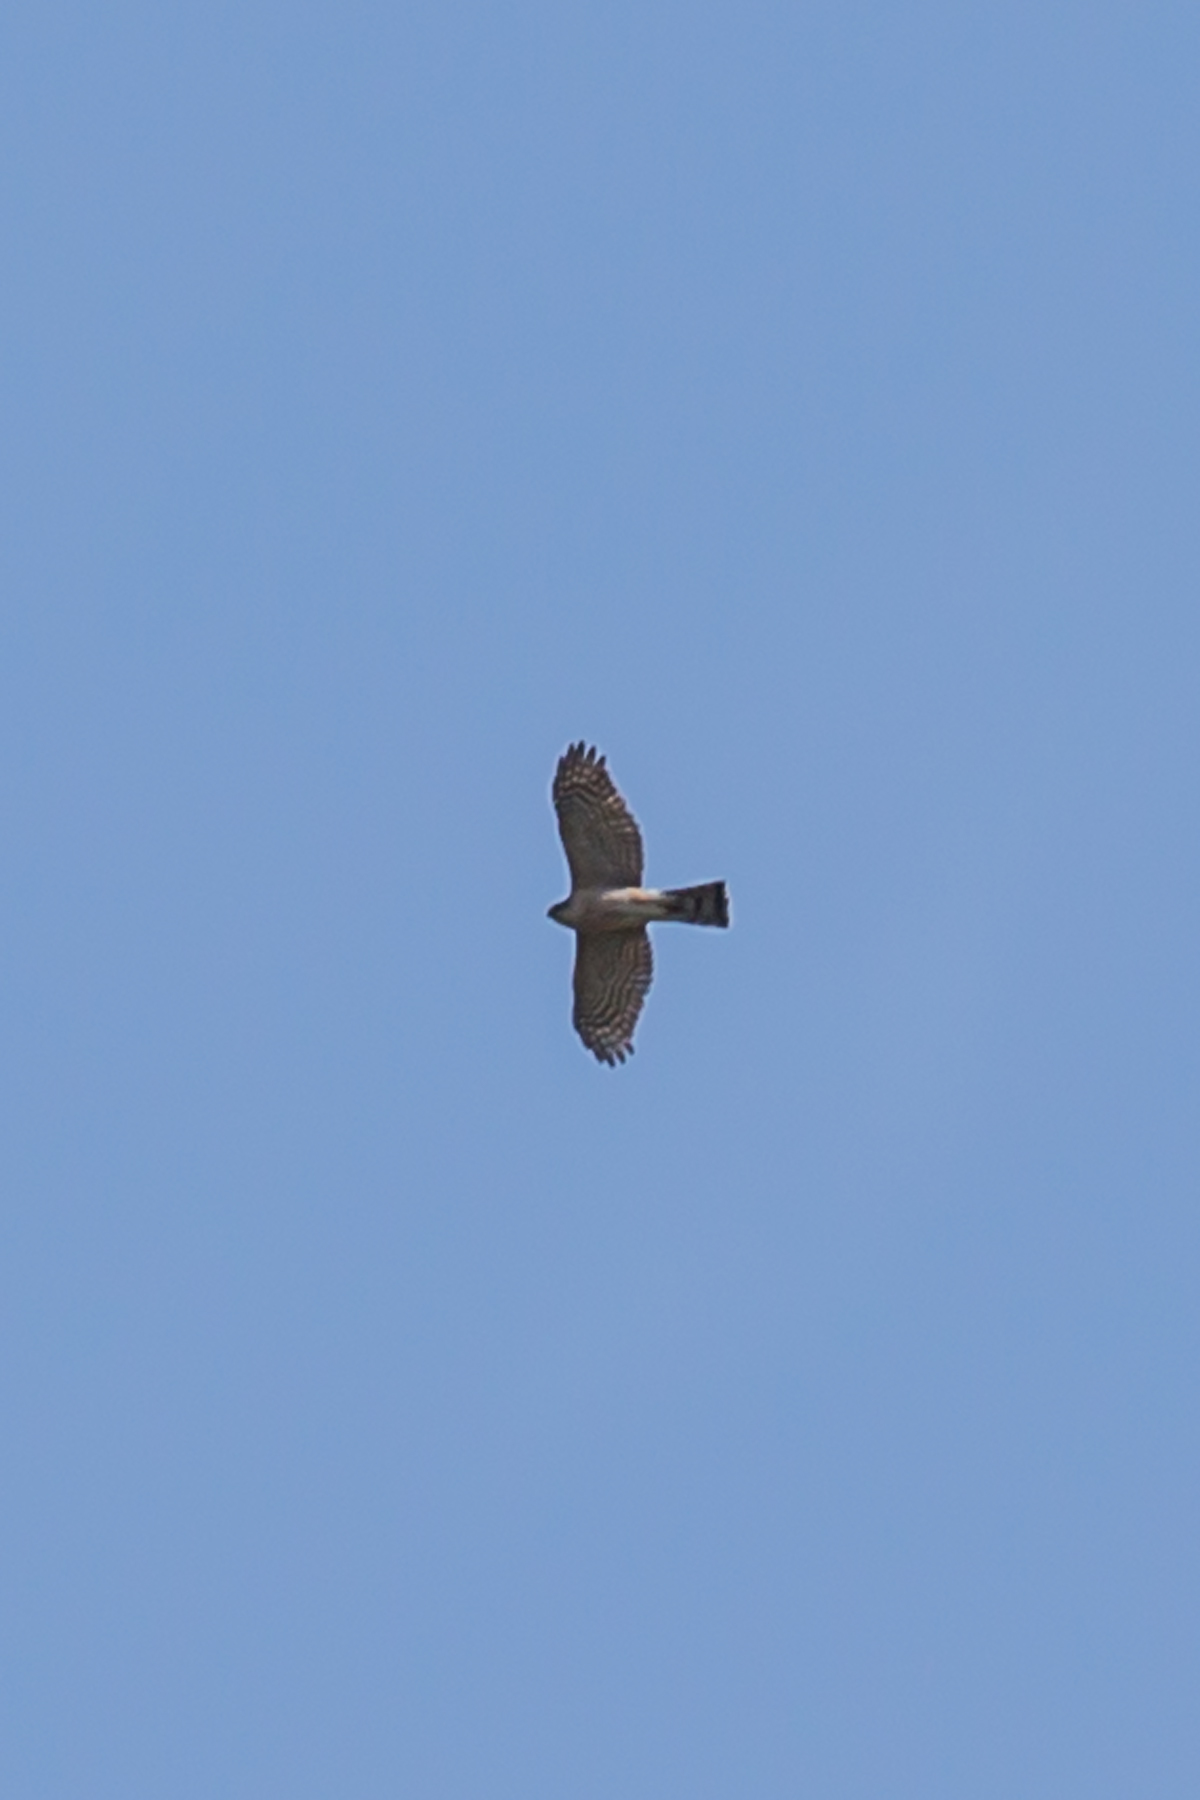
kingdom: Animalia
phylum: Chordata
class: Aves
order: Accipitriformes
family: Accipitridae
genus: Accipiter
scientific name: Accipiter striatus
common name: Sharp-shinned hawk
